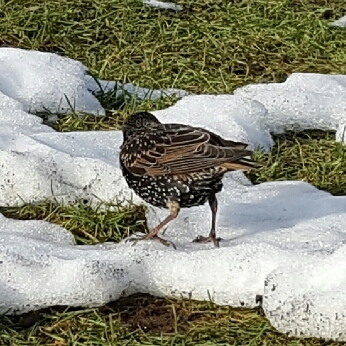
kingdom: Animalia
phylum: Chordata
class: Aves
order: Passeriformes
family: Sturnidae
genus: Sturnus
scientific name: Sturnus vulgaris
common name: Common starling
